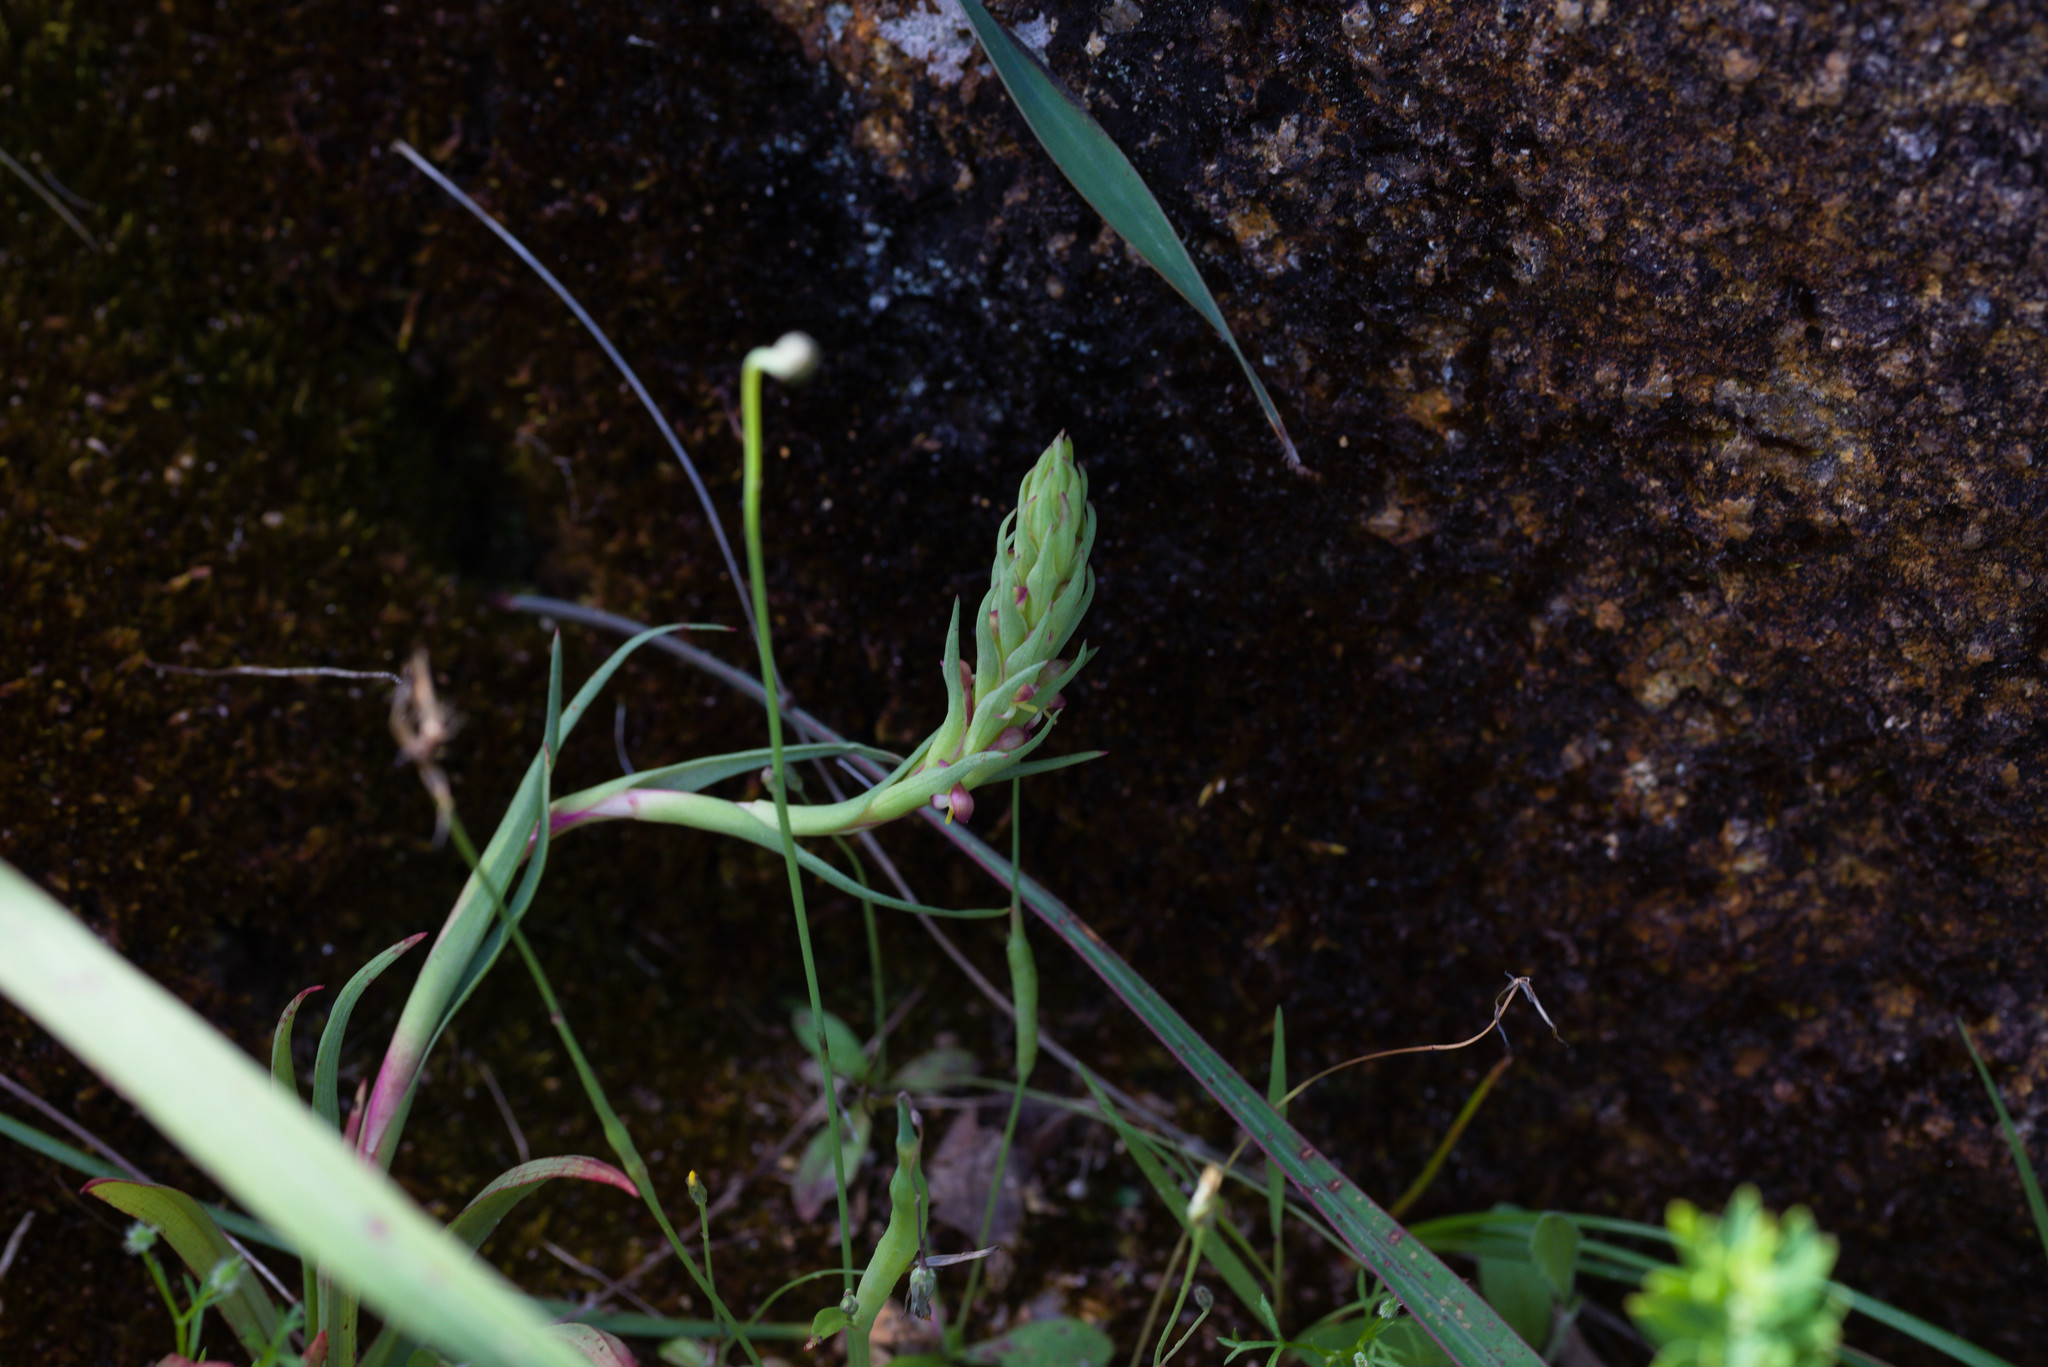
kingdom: Plantae
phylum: Tracheophyta
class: Liliopsida
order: Asparagales
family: Orchidaceae
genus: Disa
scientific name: Disa bracteata
